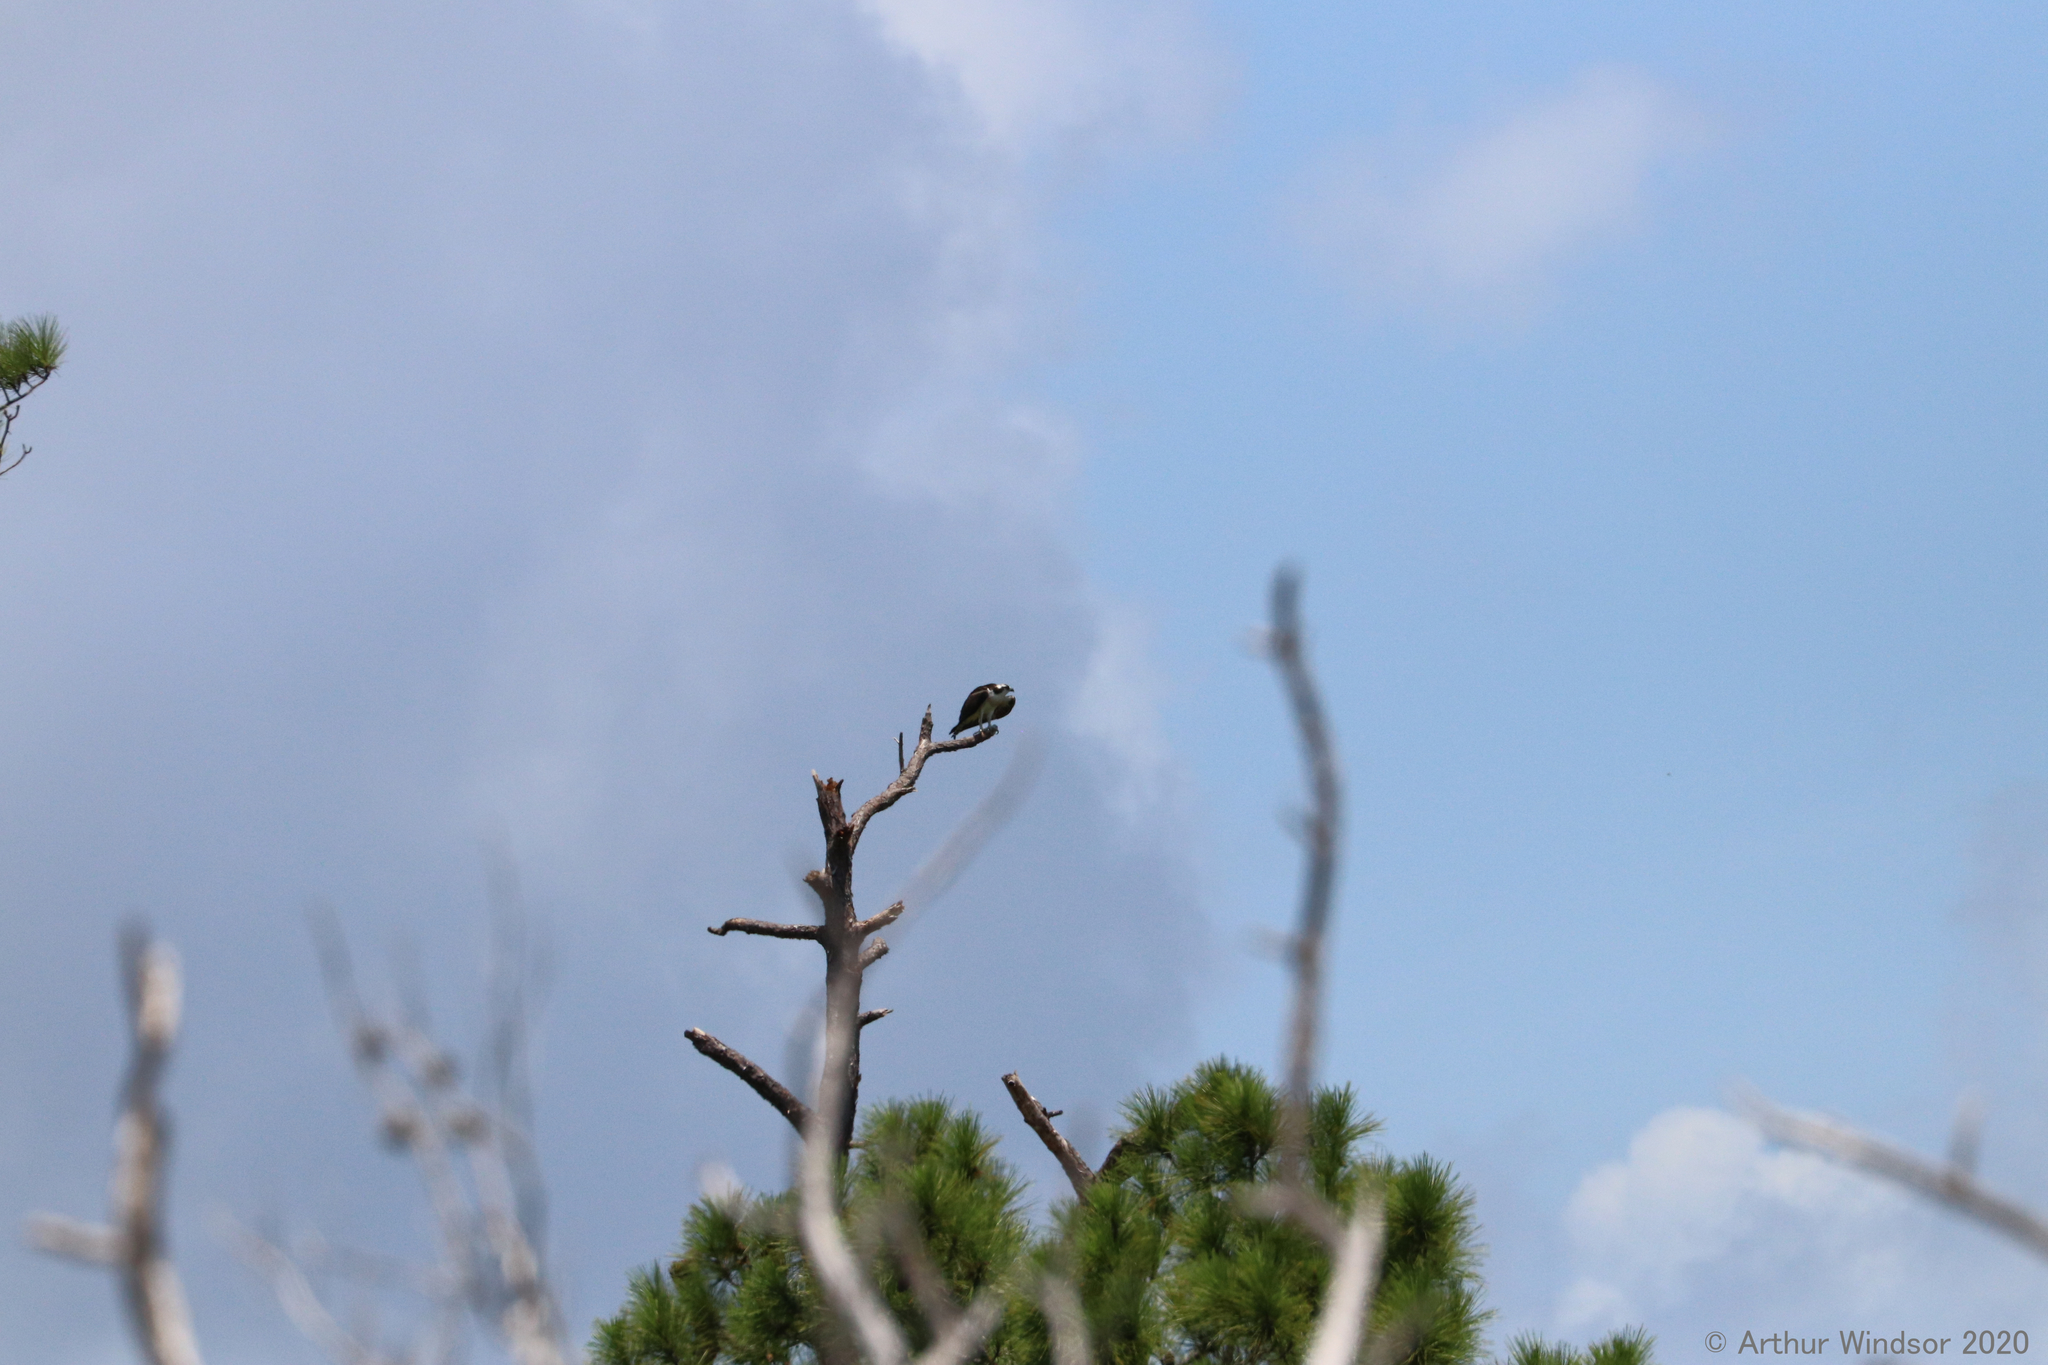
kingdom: Animalia
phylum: Chordata
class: Aves
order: Accipitriformes
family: Pandionidae
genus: Pandion
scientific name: Pandion haliaetus
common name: Osprey
